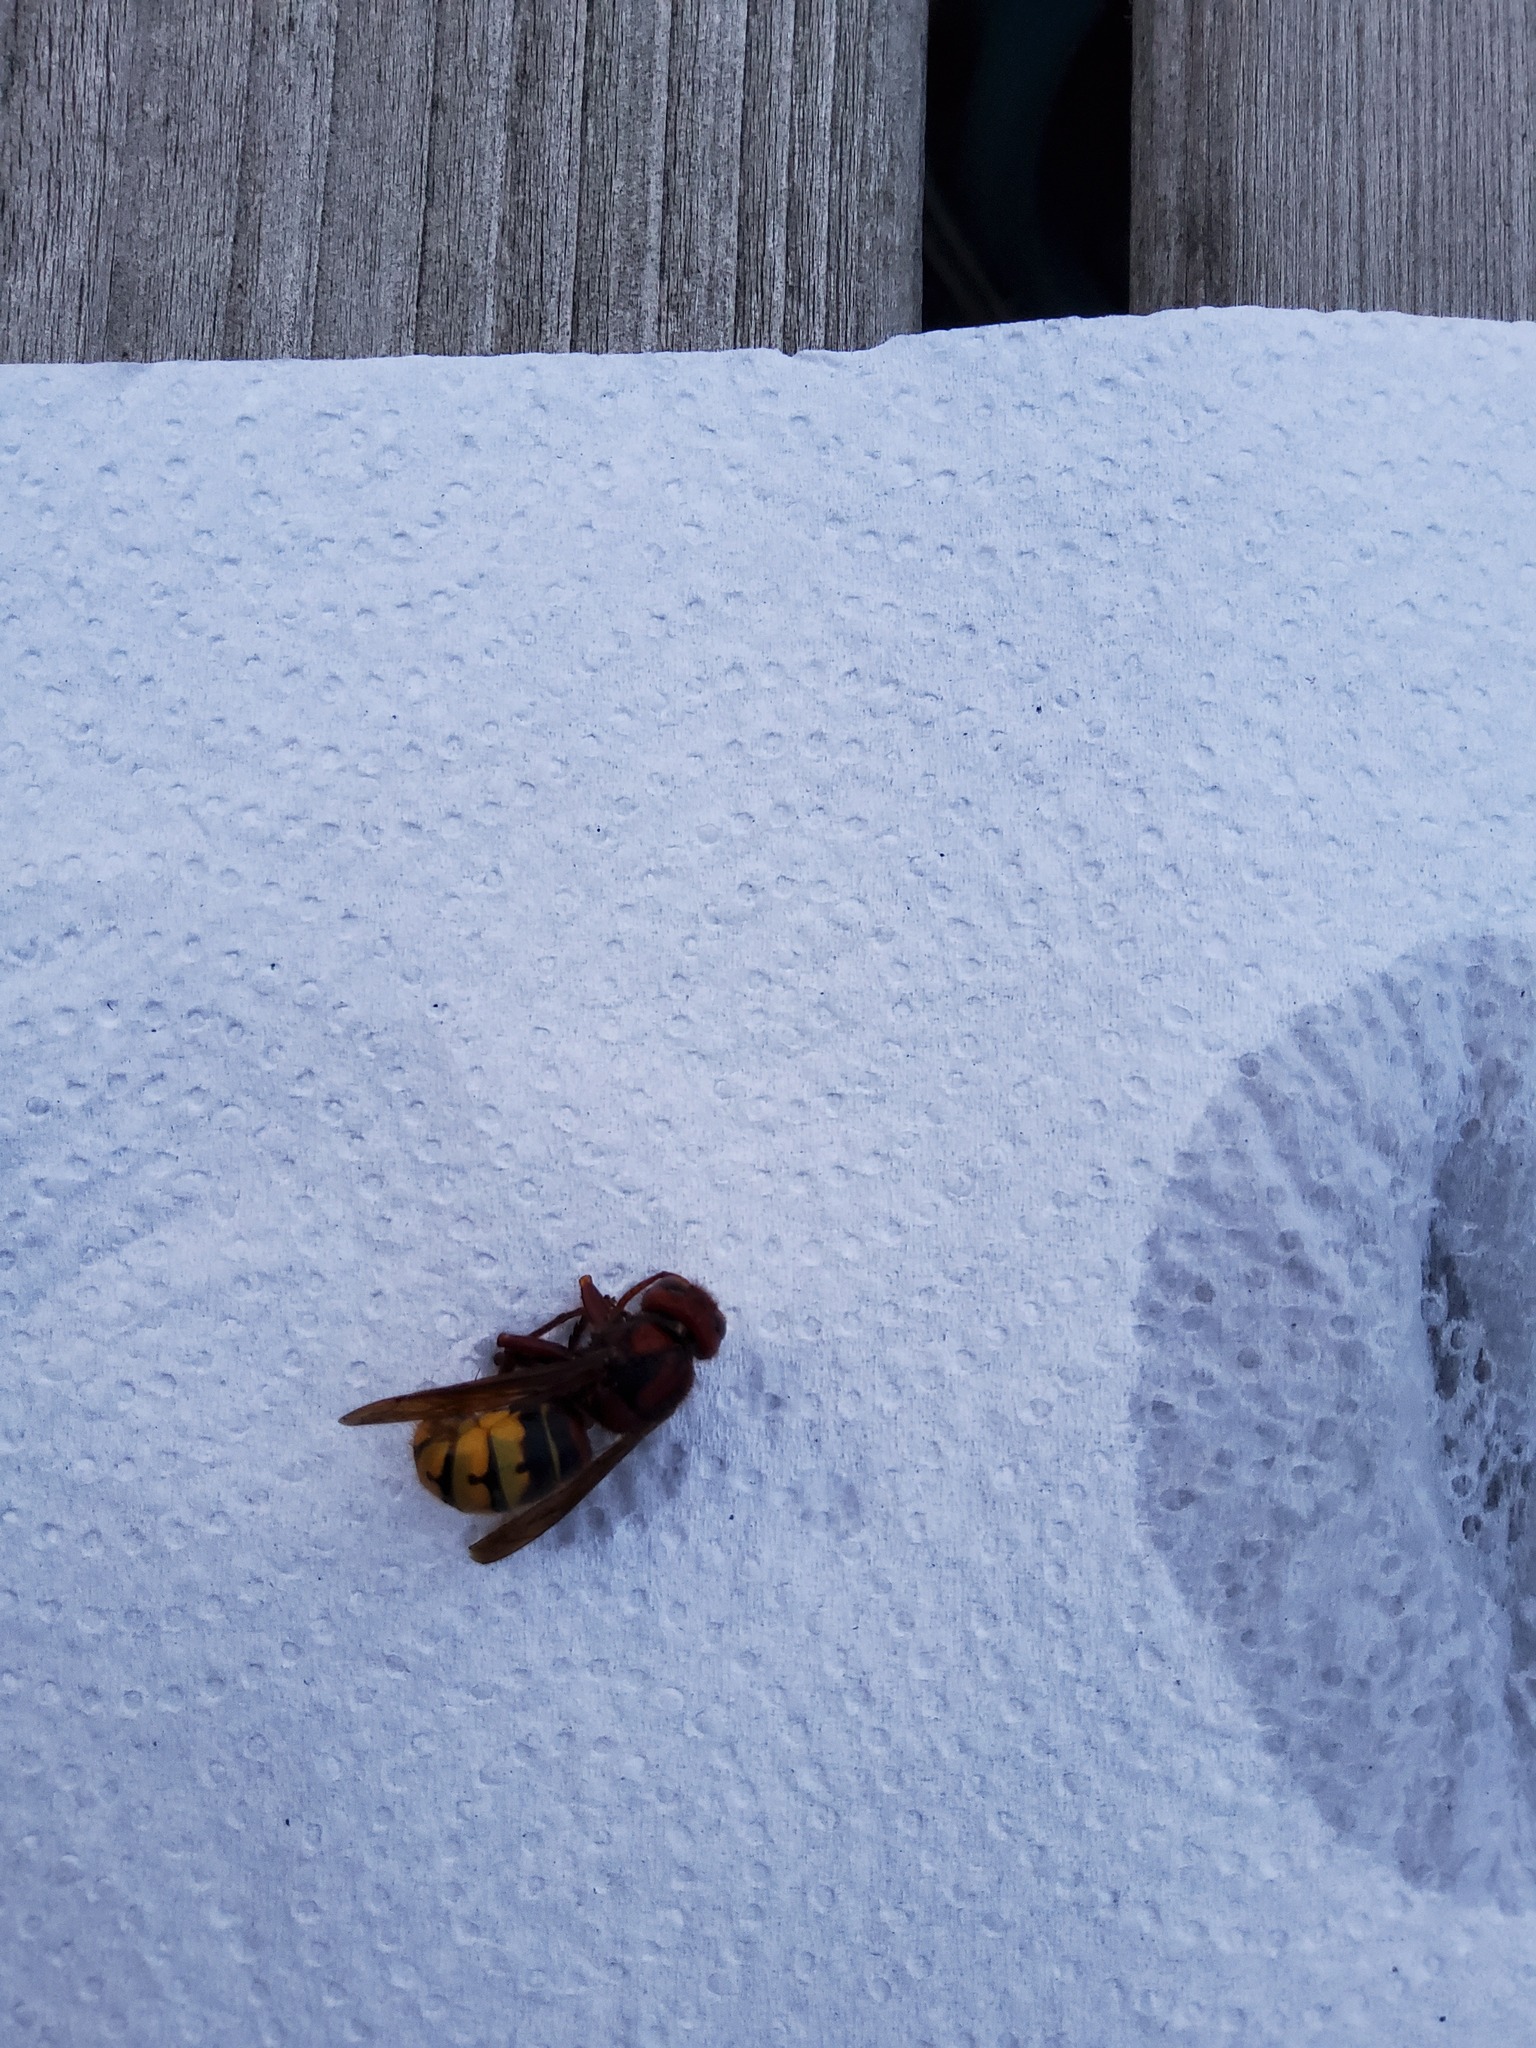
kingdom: Animalia
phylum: Arthropoda
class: Insecta
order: Hymenoptera
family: Vespidae
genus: Vespa
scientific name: Vespa crabro
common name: Hornet
